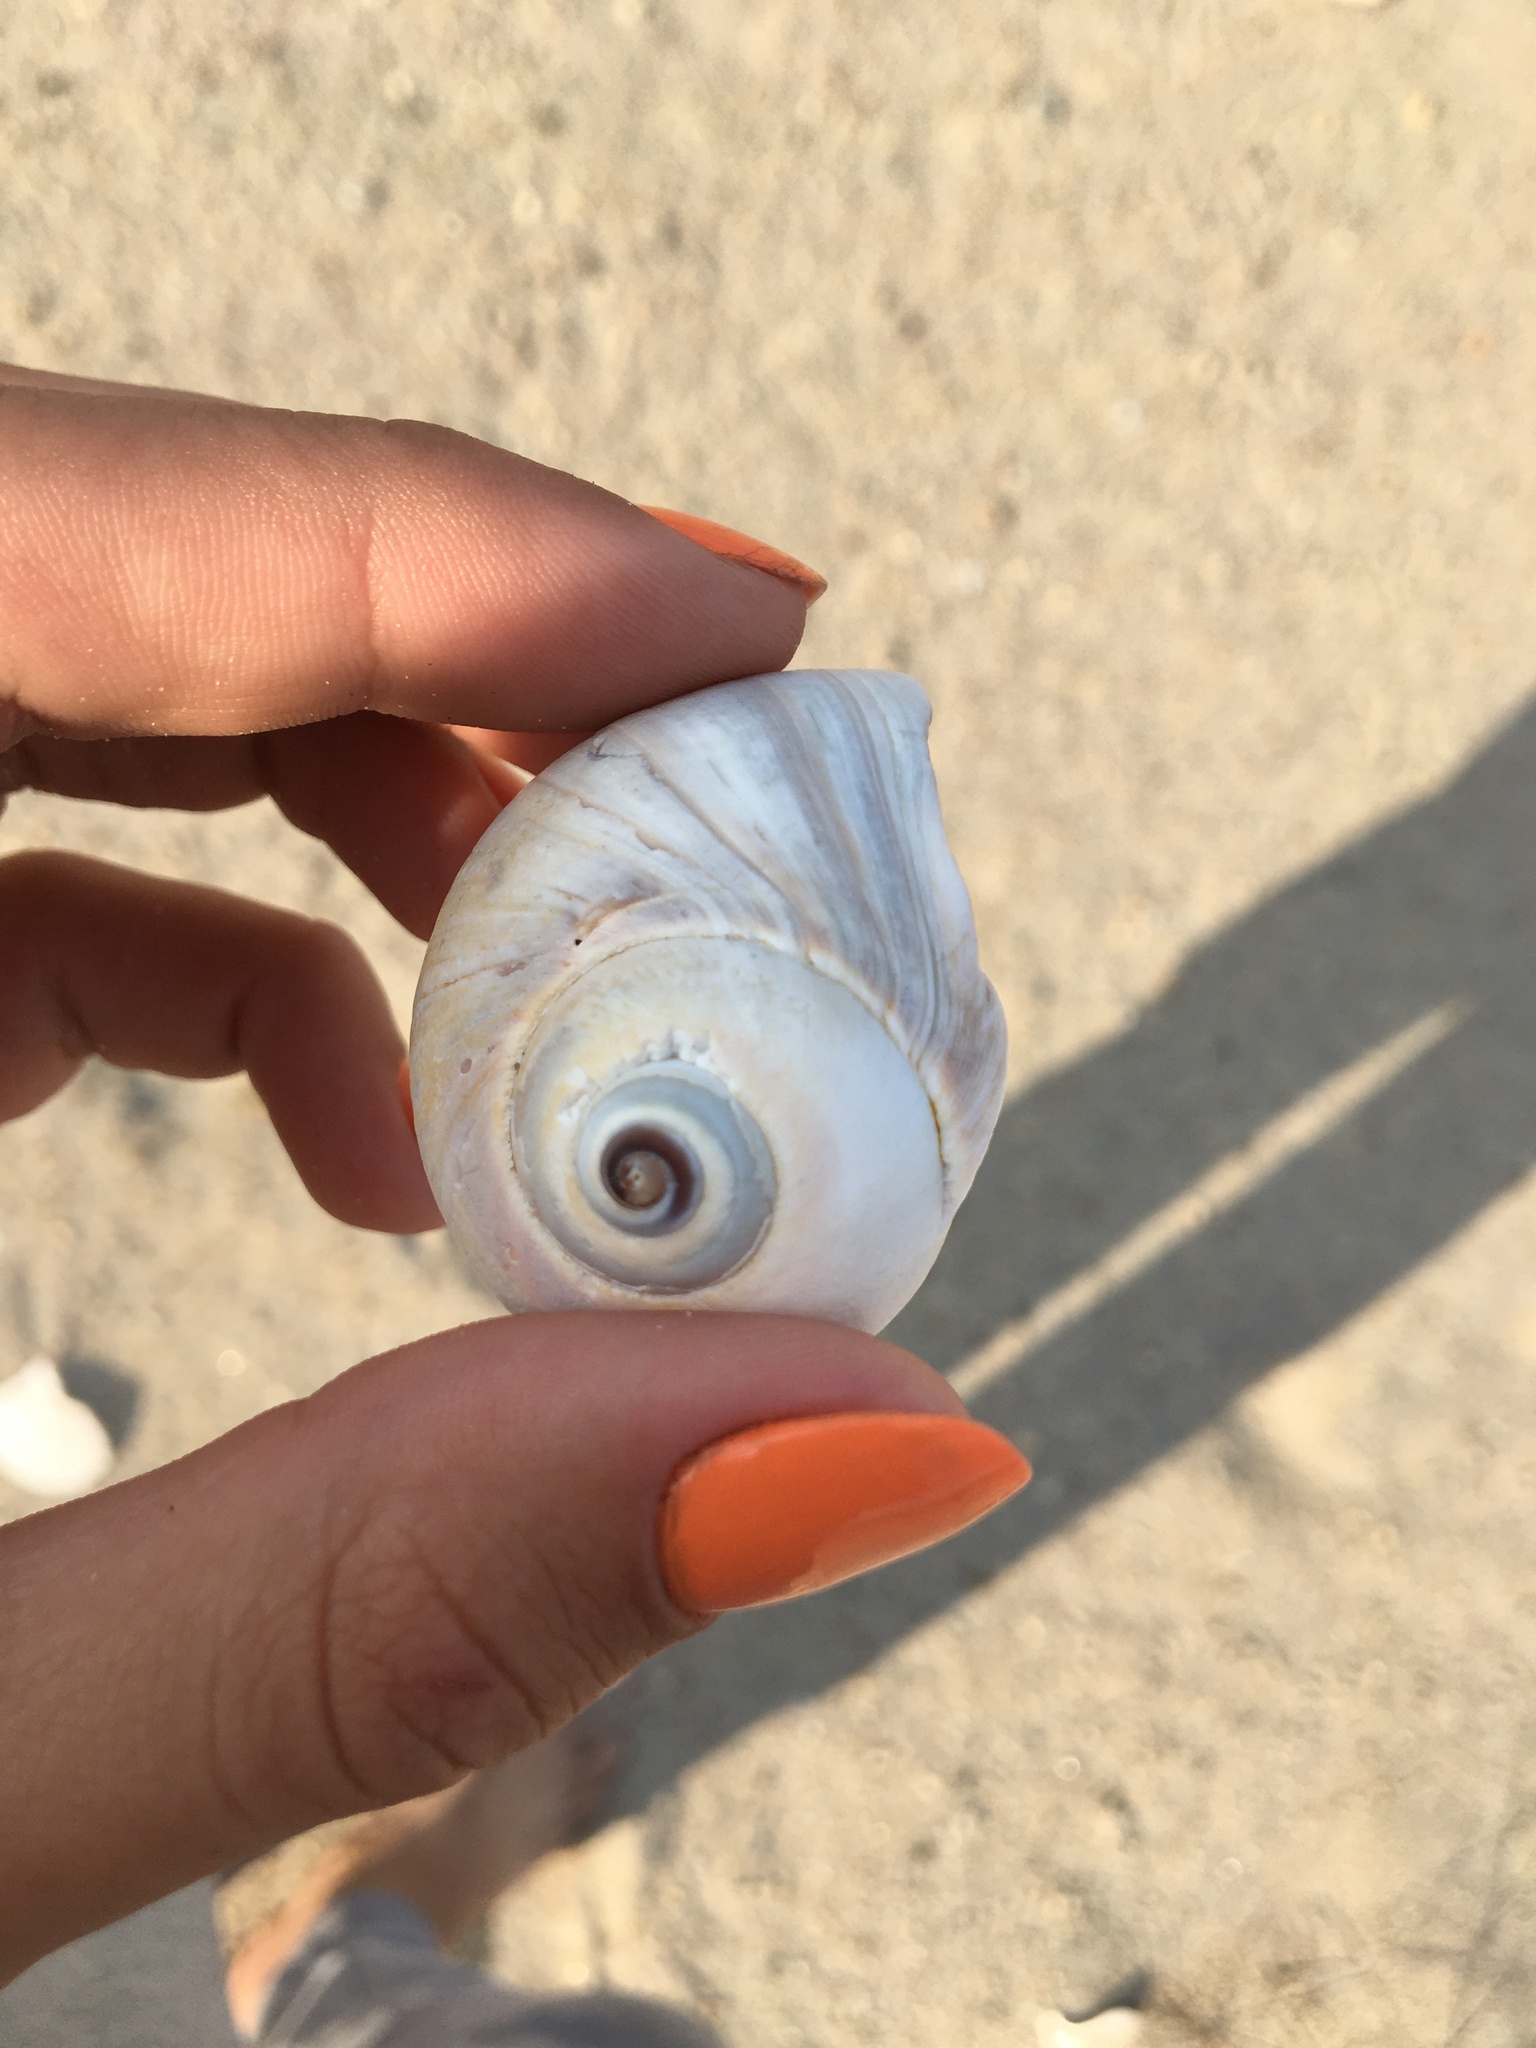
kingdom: Animalia
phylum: Mollusca
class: Gastropoda
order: Littorinimorpha
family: Naticidae
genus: Euspira
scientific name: Euspira heros
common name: Common northern moonsnail
